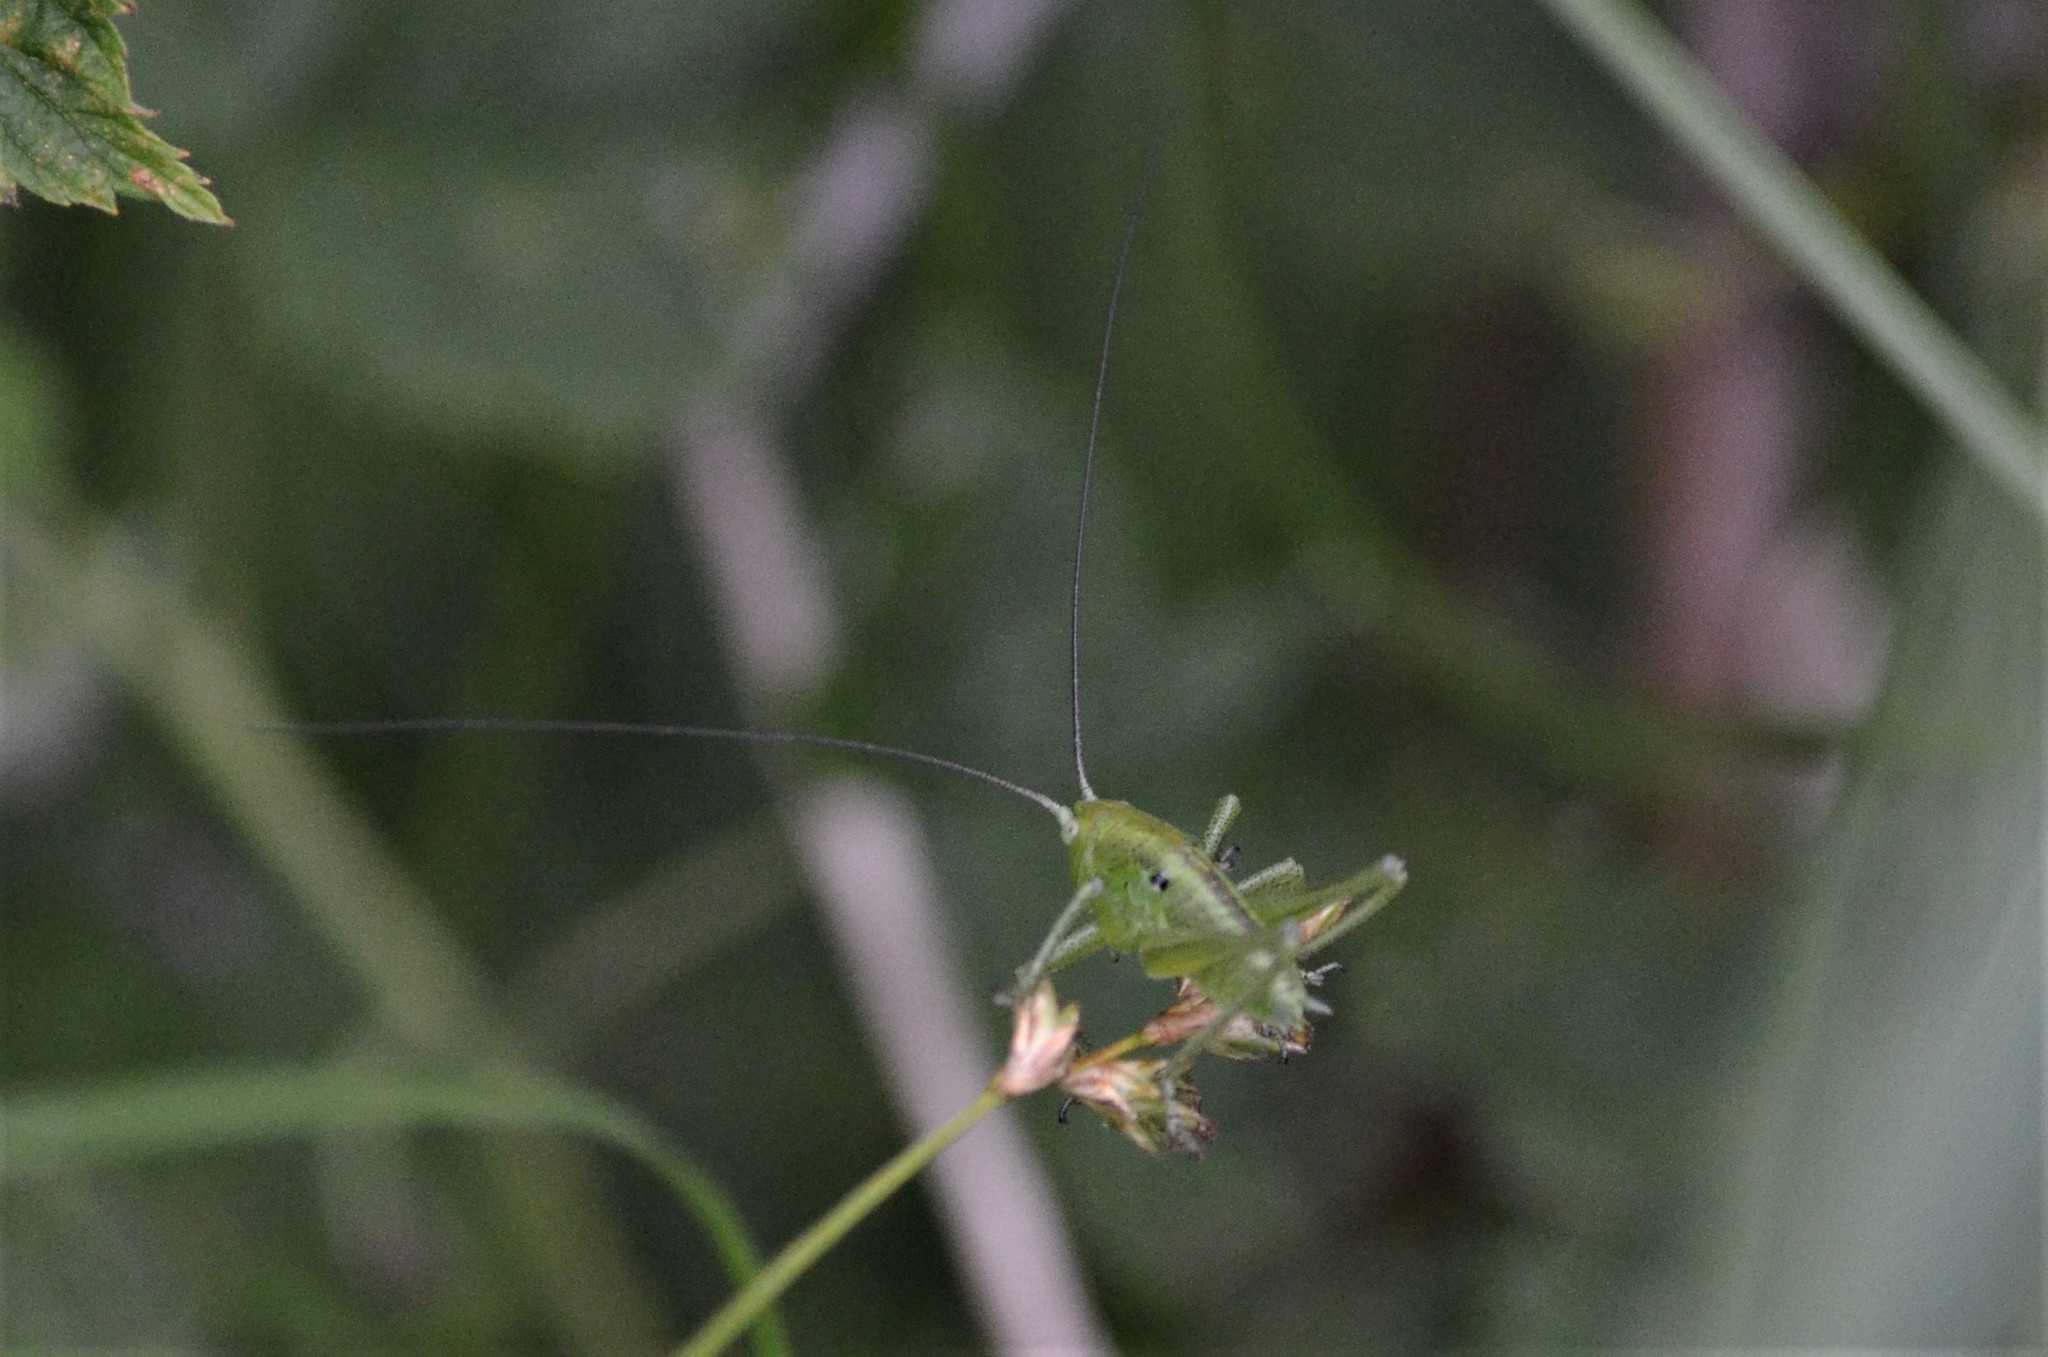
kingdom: Animalia
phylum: Arthropoda
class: Insecta
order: Orthoptera
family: Tettigoniidae
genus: Tettigonia
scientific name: Tettigonia cantans
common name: Upland green bush-cricket
